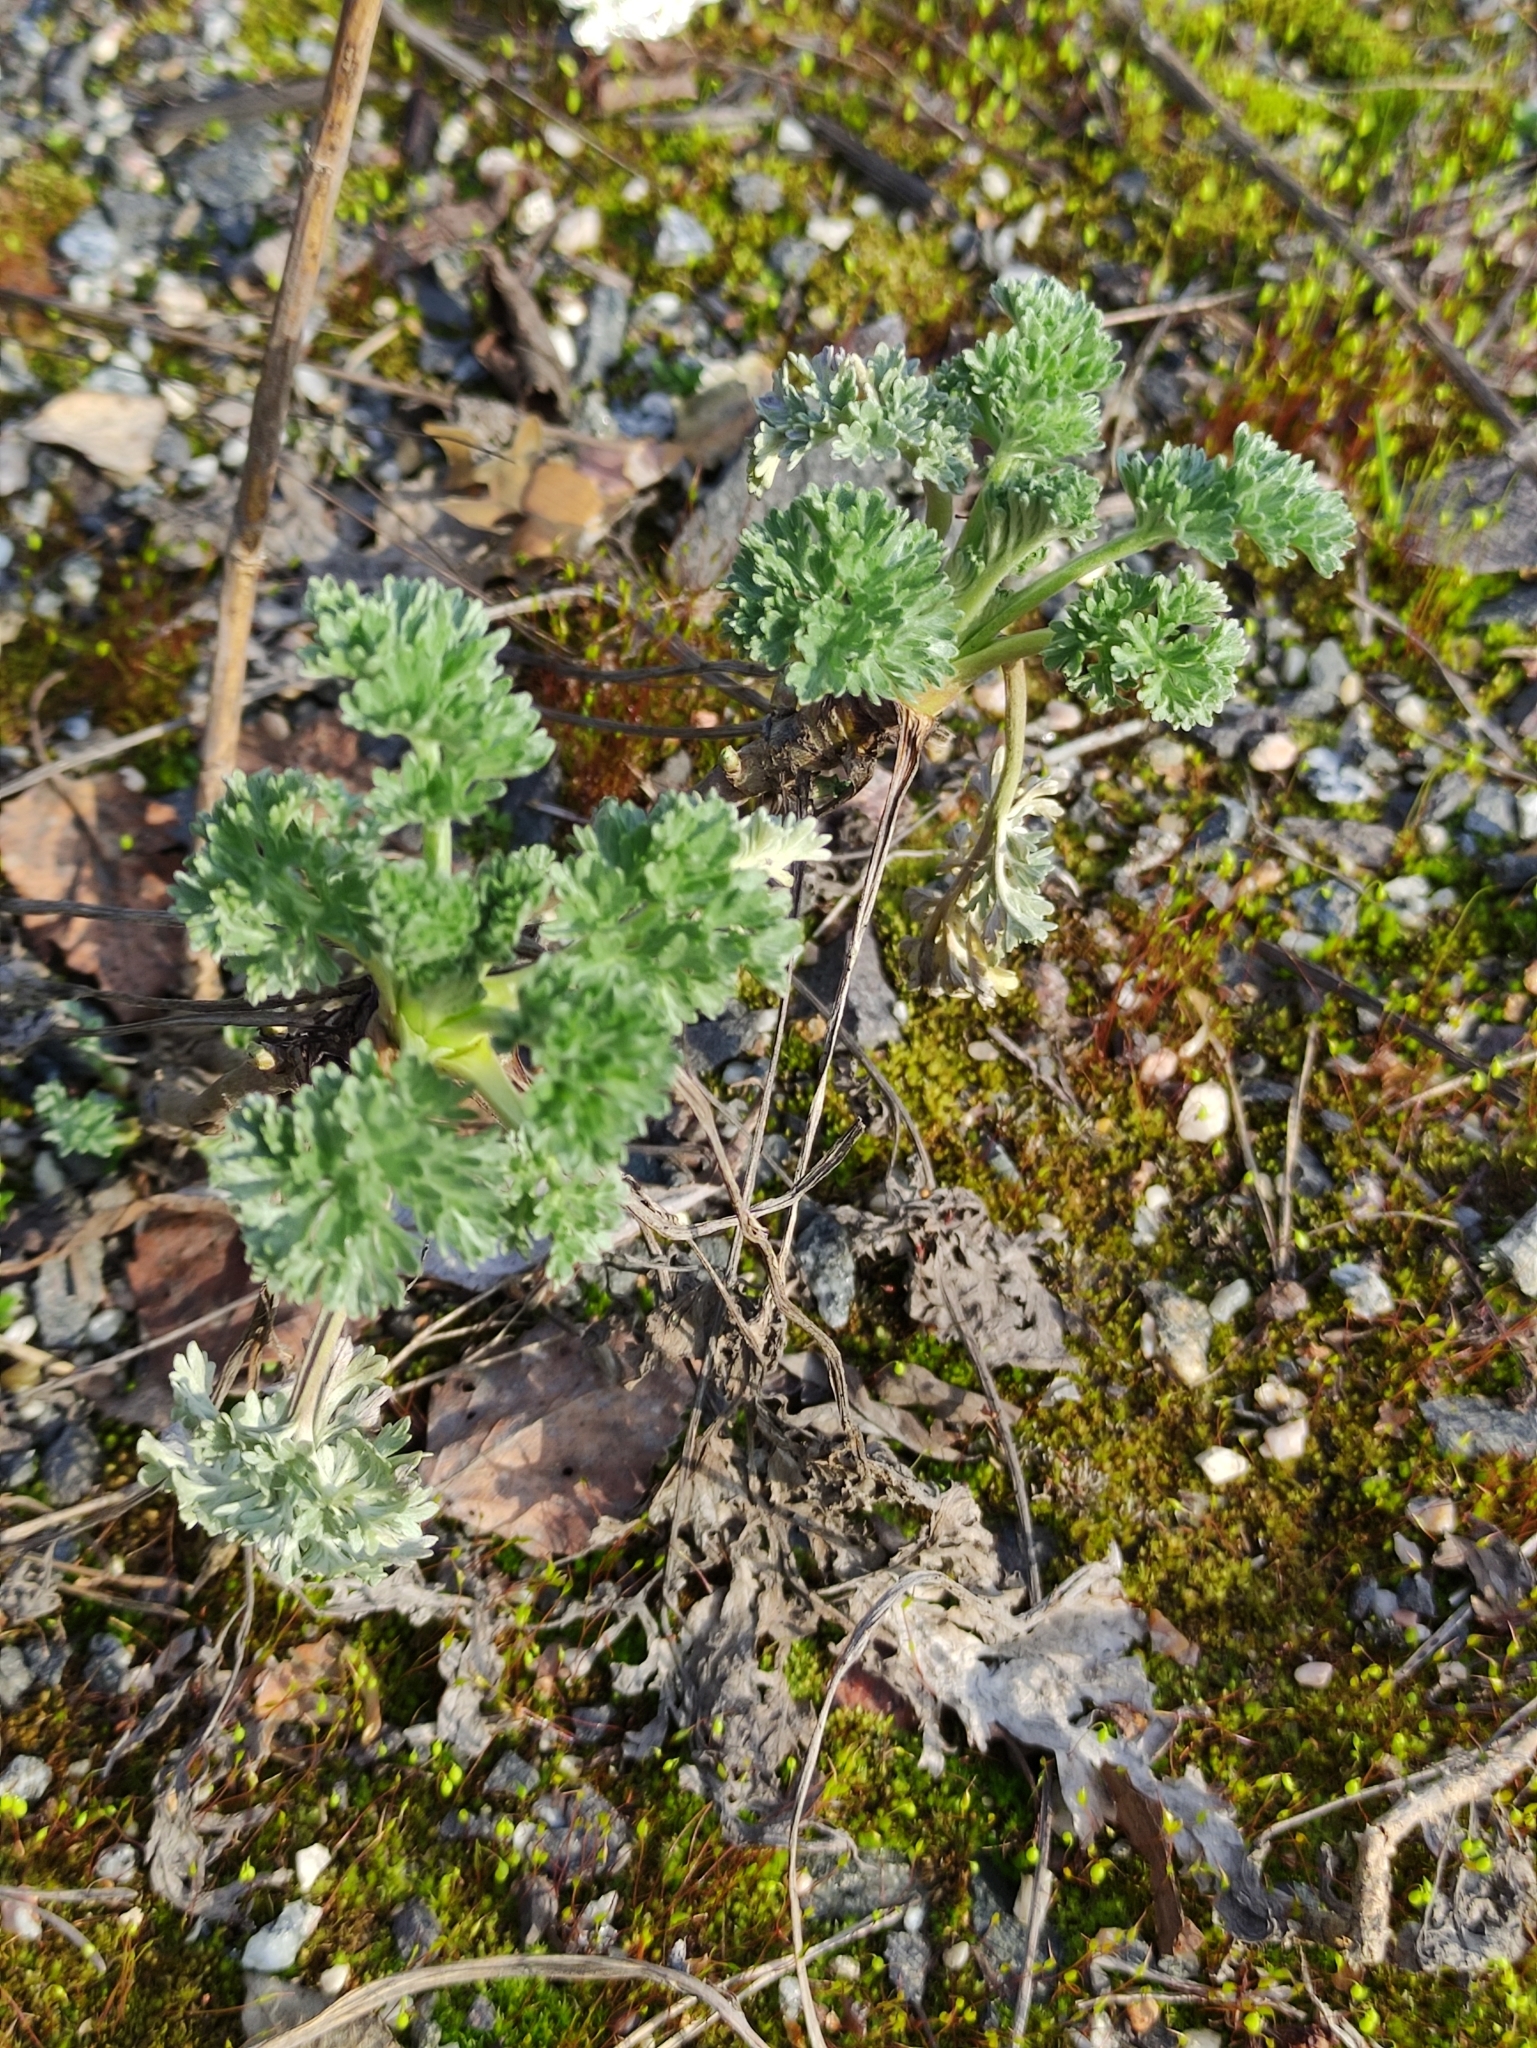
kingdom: Plantae
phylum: Tracheophyta
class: Magnoliopsida
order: Asterales
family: Asteraceae
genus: Artemisia
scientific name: Artemisia absinthium
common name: Wormwood
